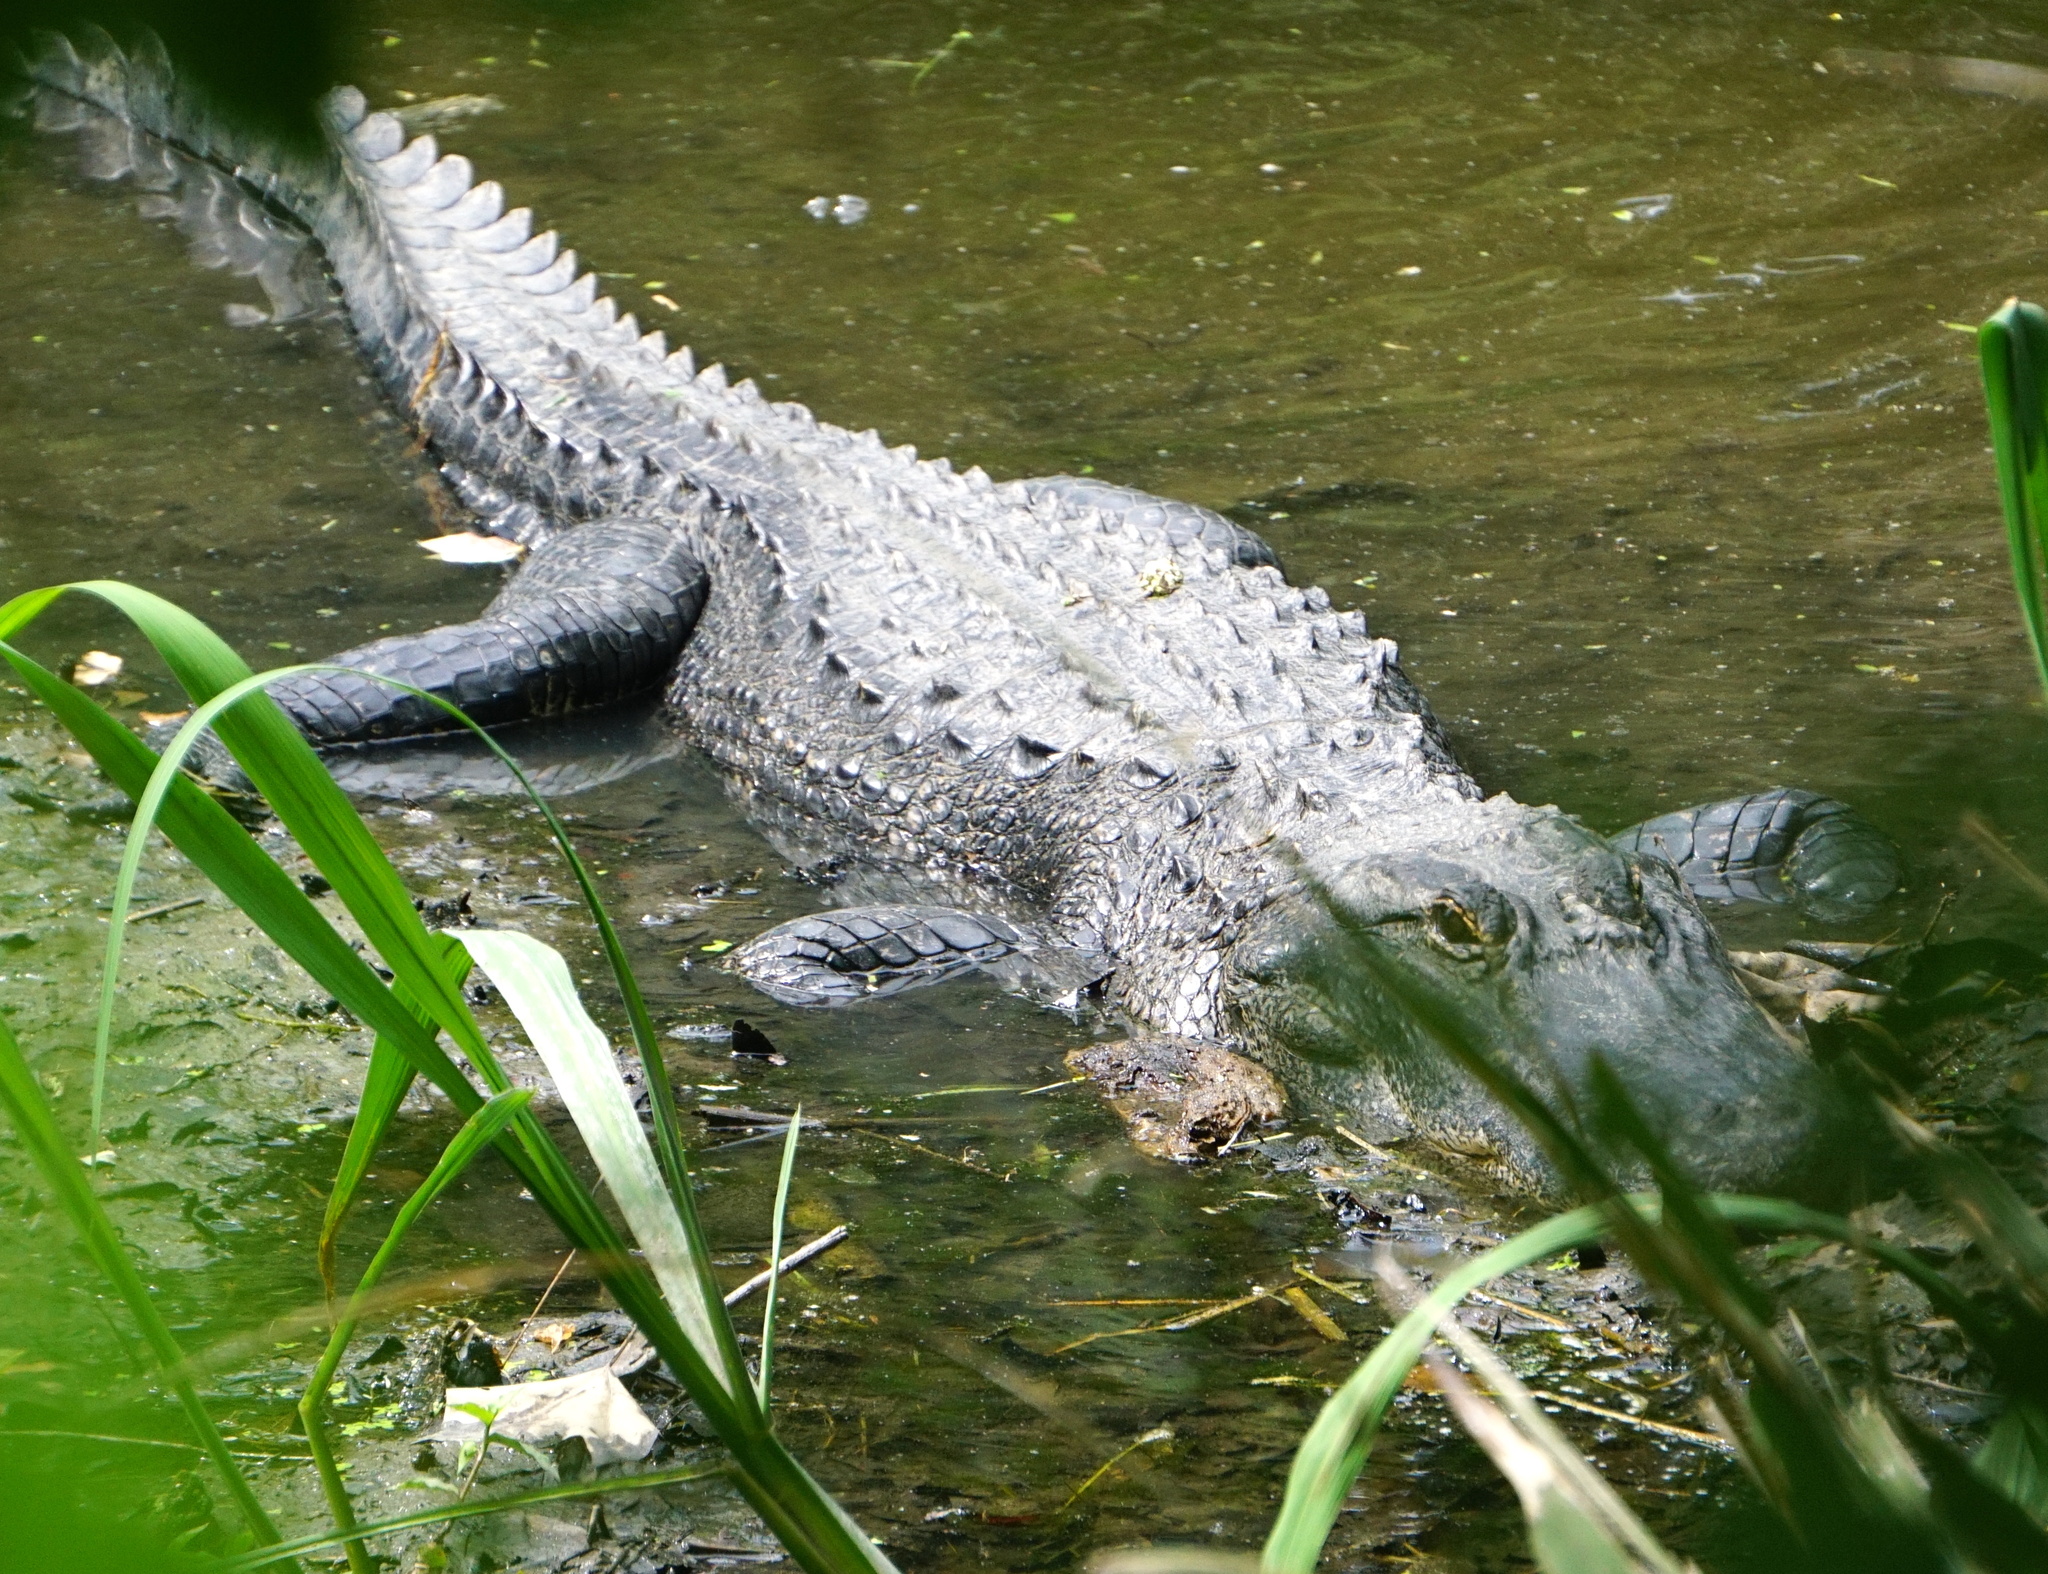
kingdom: Animalia
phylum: Chordata
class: Crocodylia
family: Alligatoridae
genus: Alligator
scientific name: Alligator mississippiensis
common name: American alligator
